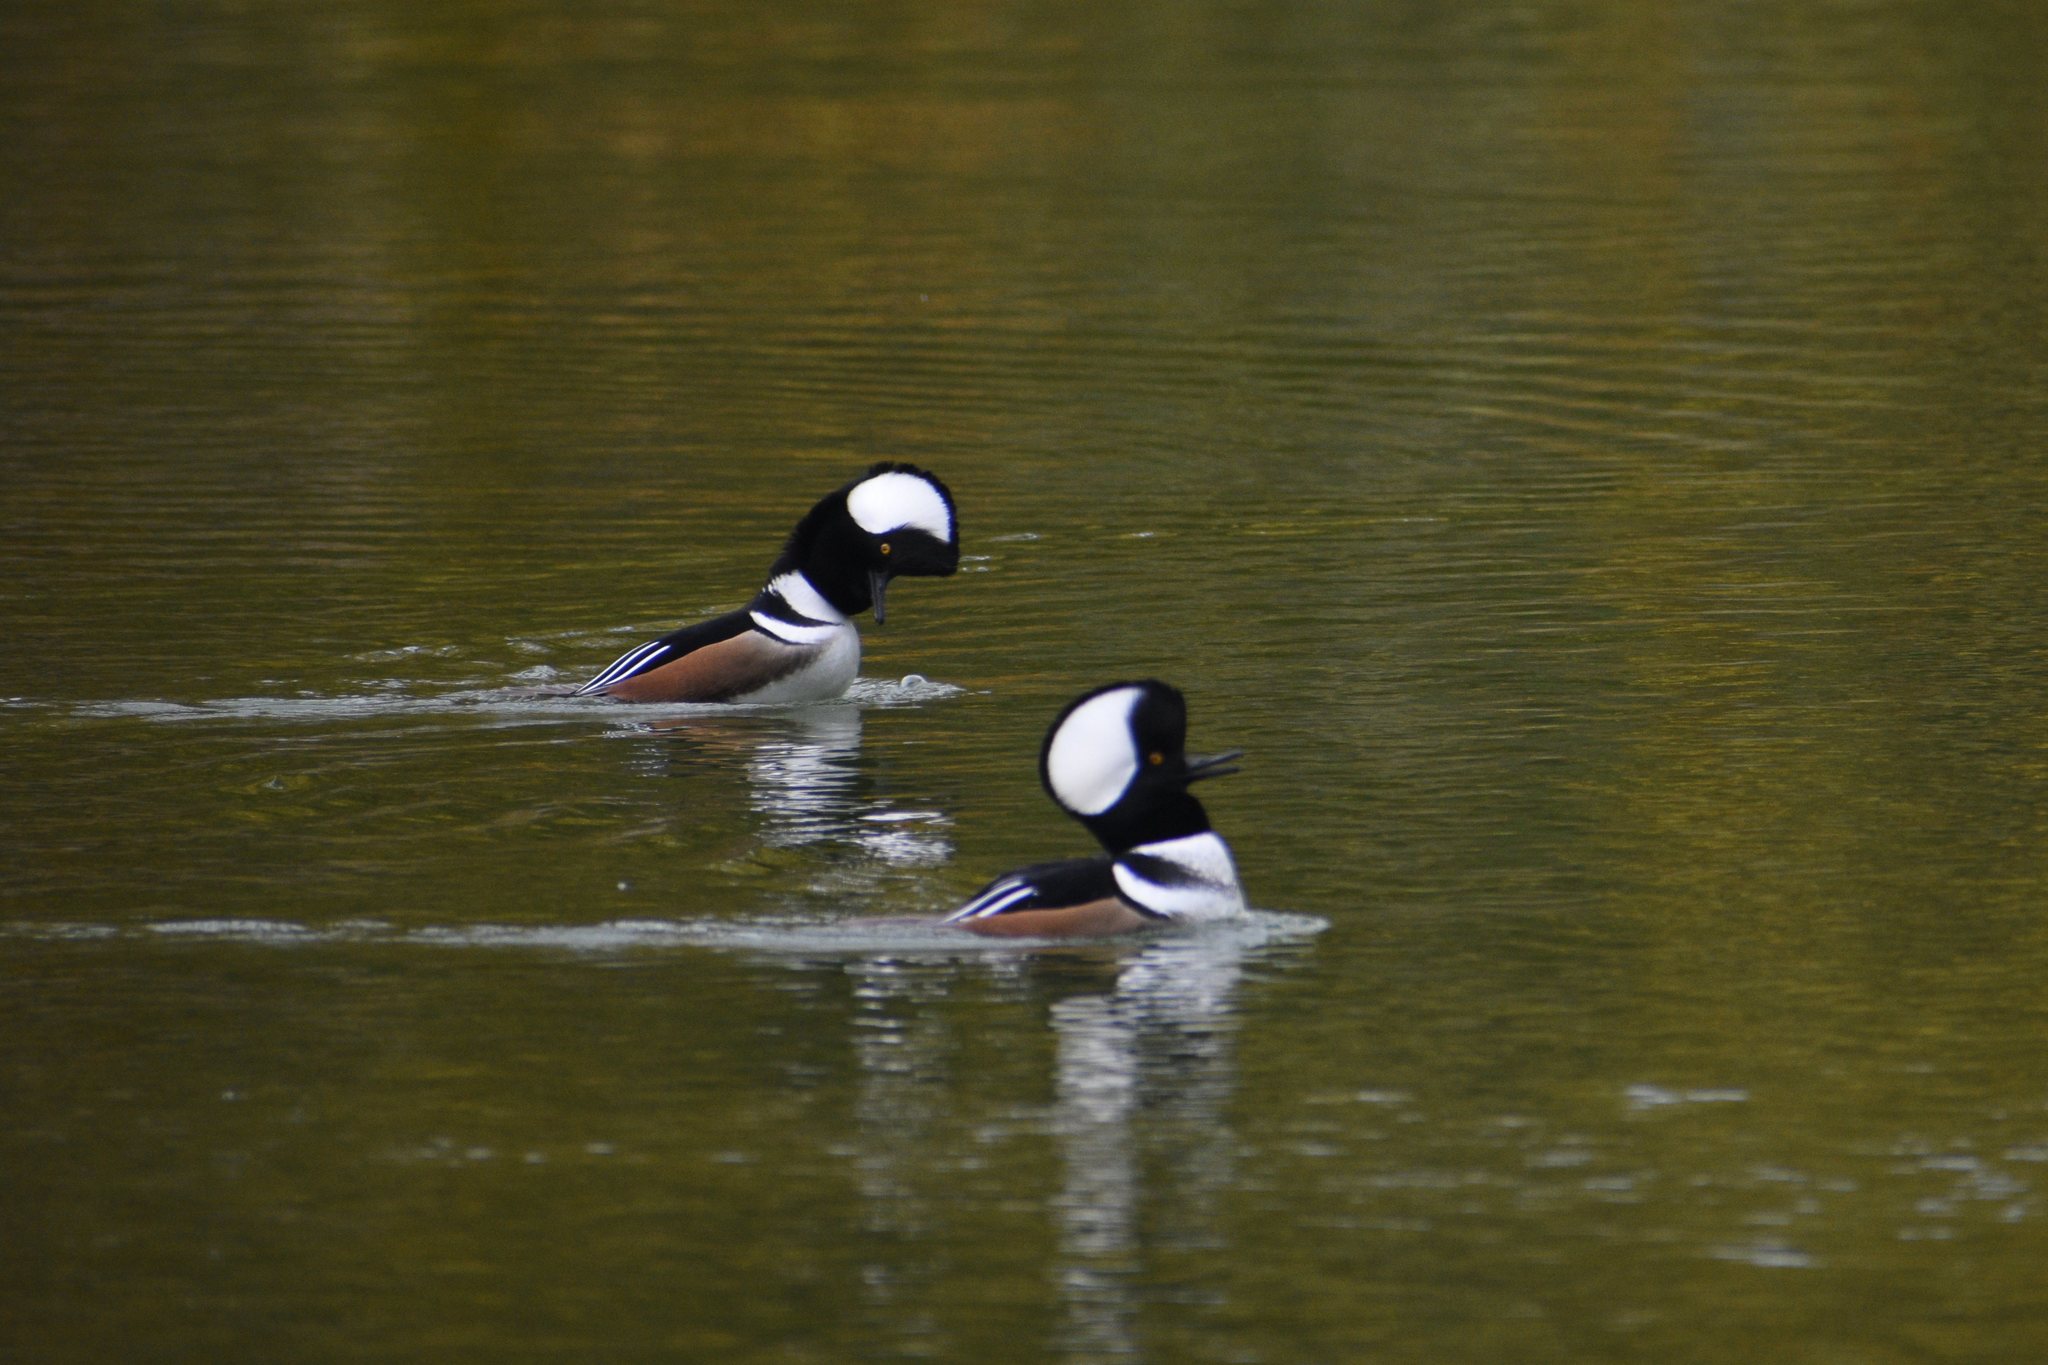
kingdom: Animalia
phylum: Chordata
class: Aves
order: Anseriformes
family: Anatidae
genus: Lophodytes
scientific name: Lophodytes cucullatus
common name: Hooded merganser
